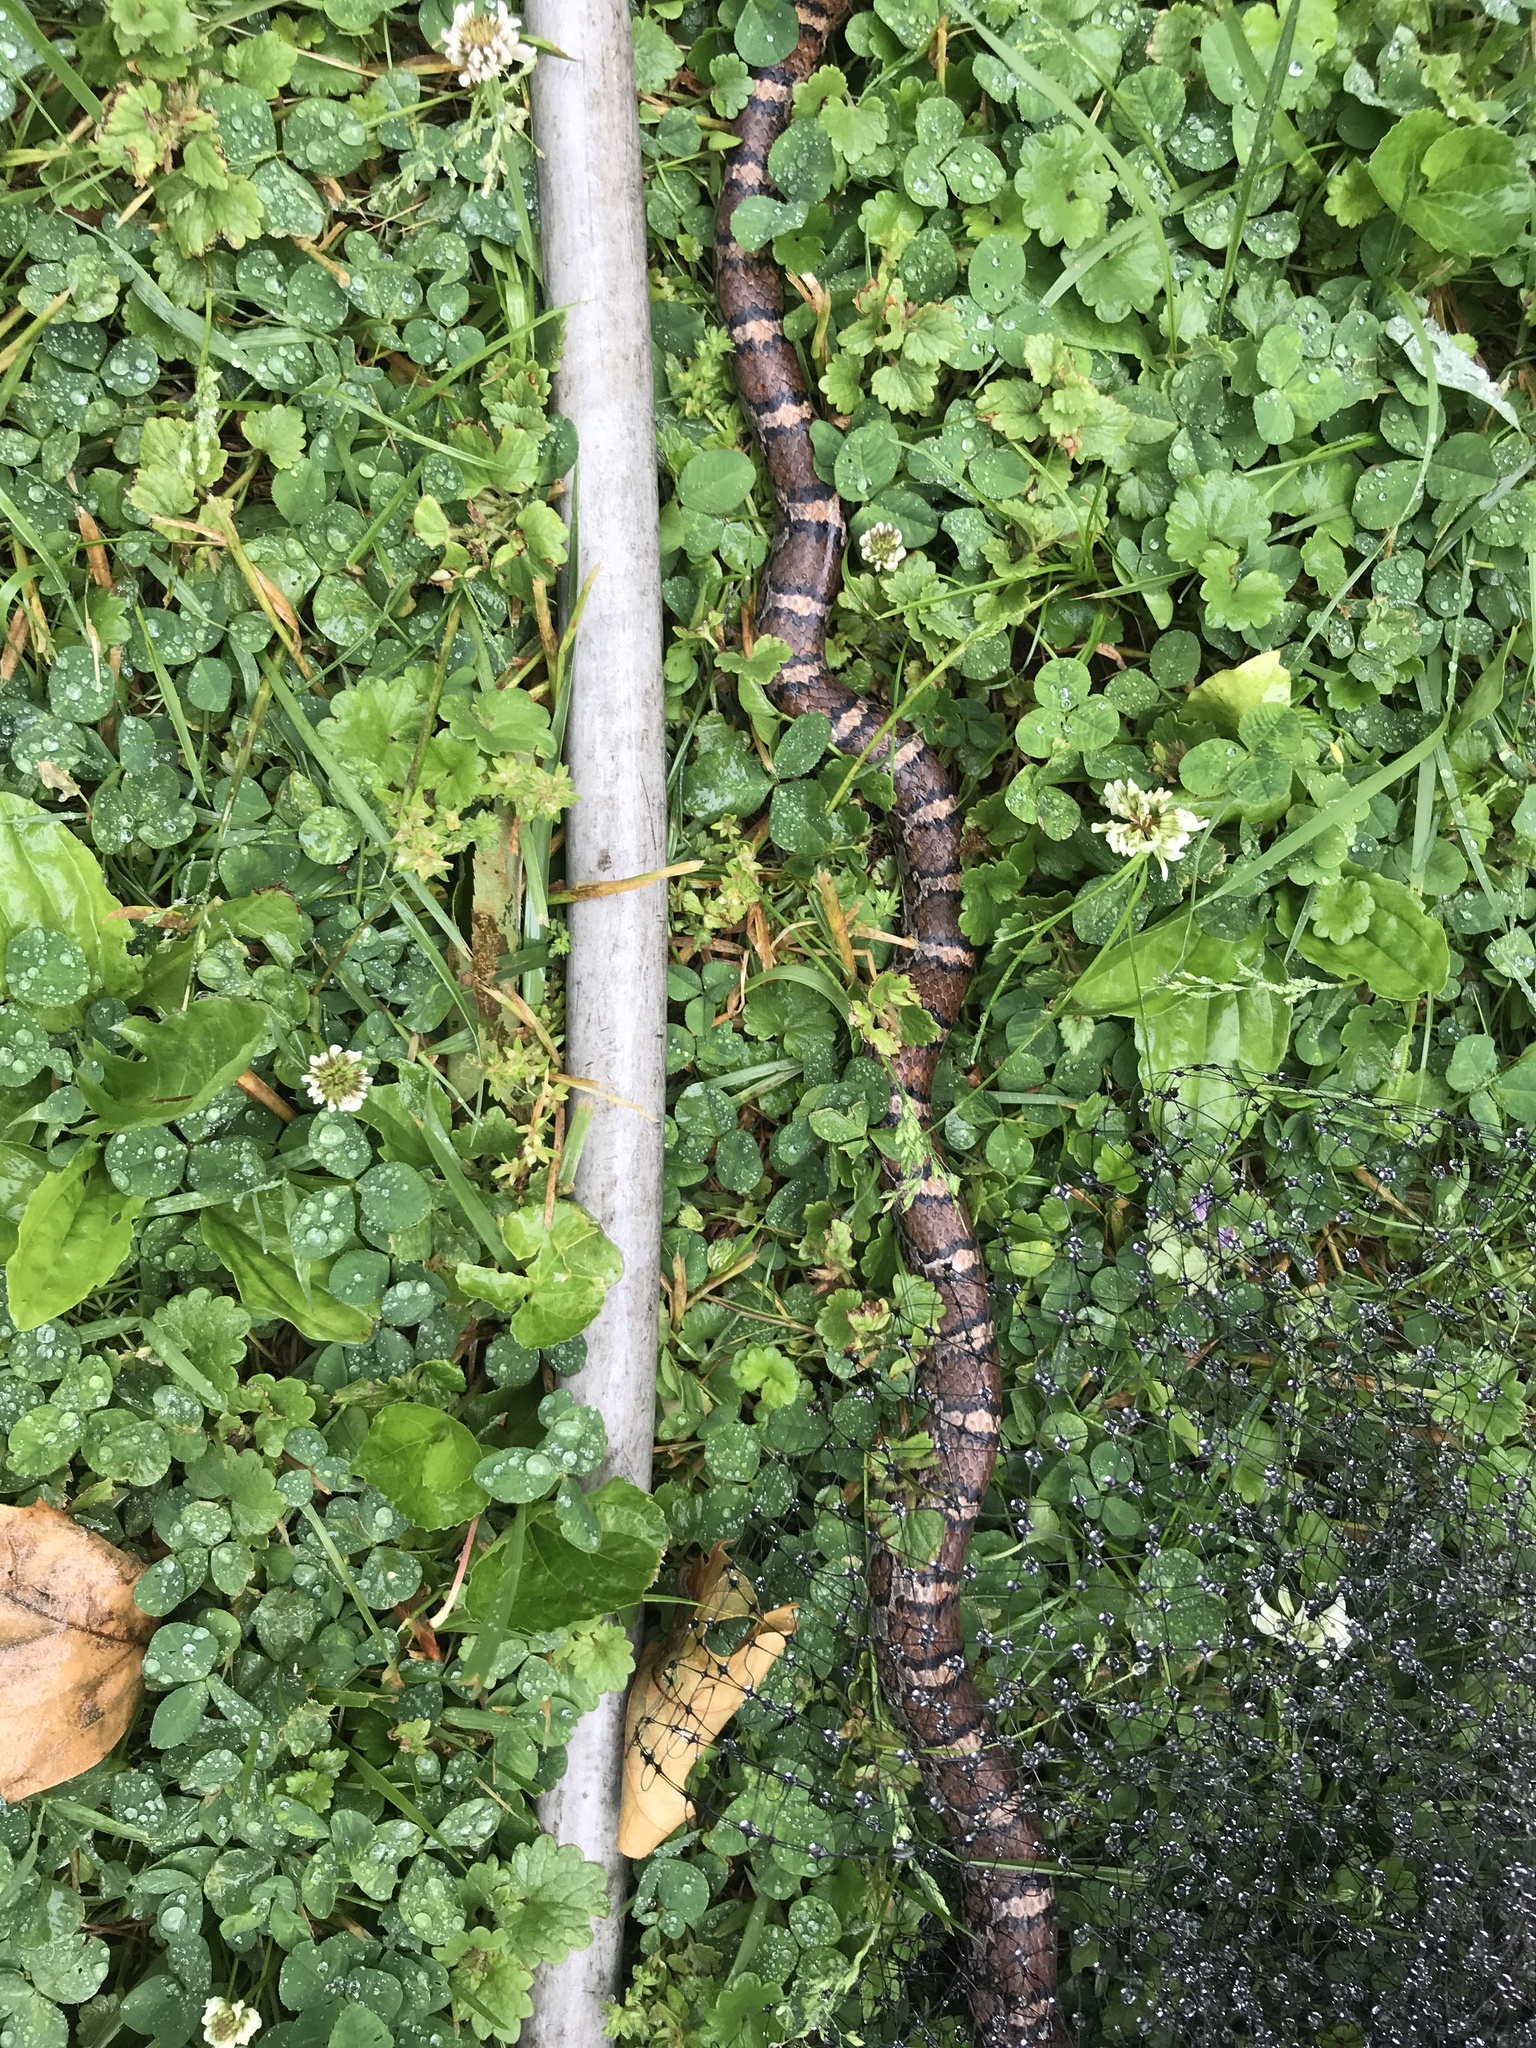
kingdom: Animalia
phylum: Chordata
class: Squamata
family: Colubridae
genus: Lampropeltis
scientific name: Lampropeltis triangulum
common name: Eastern milksnake
